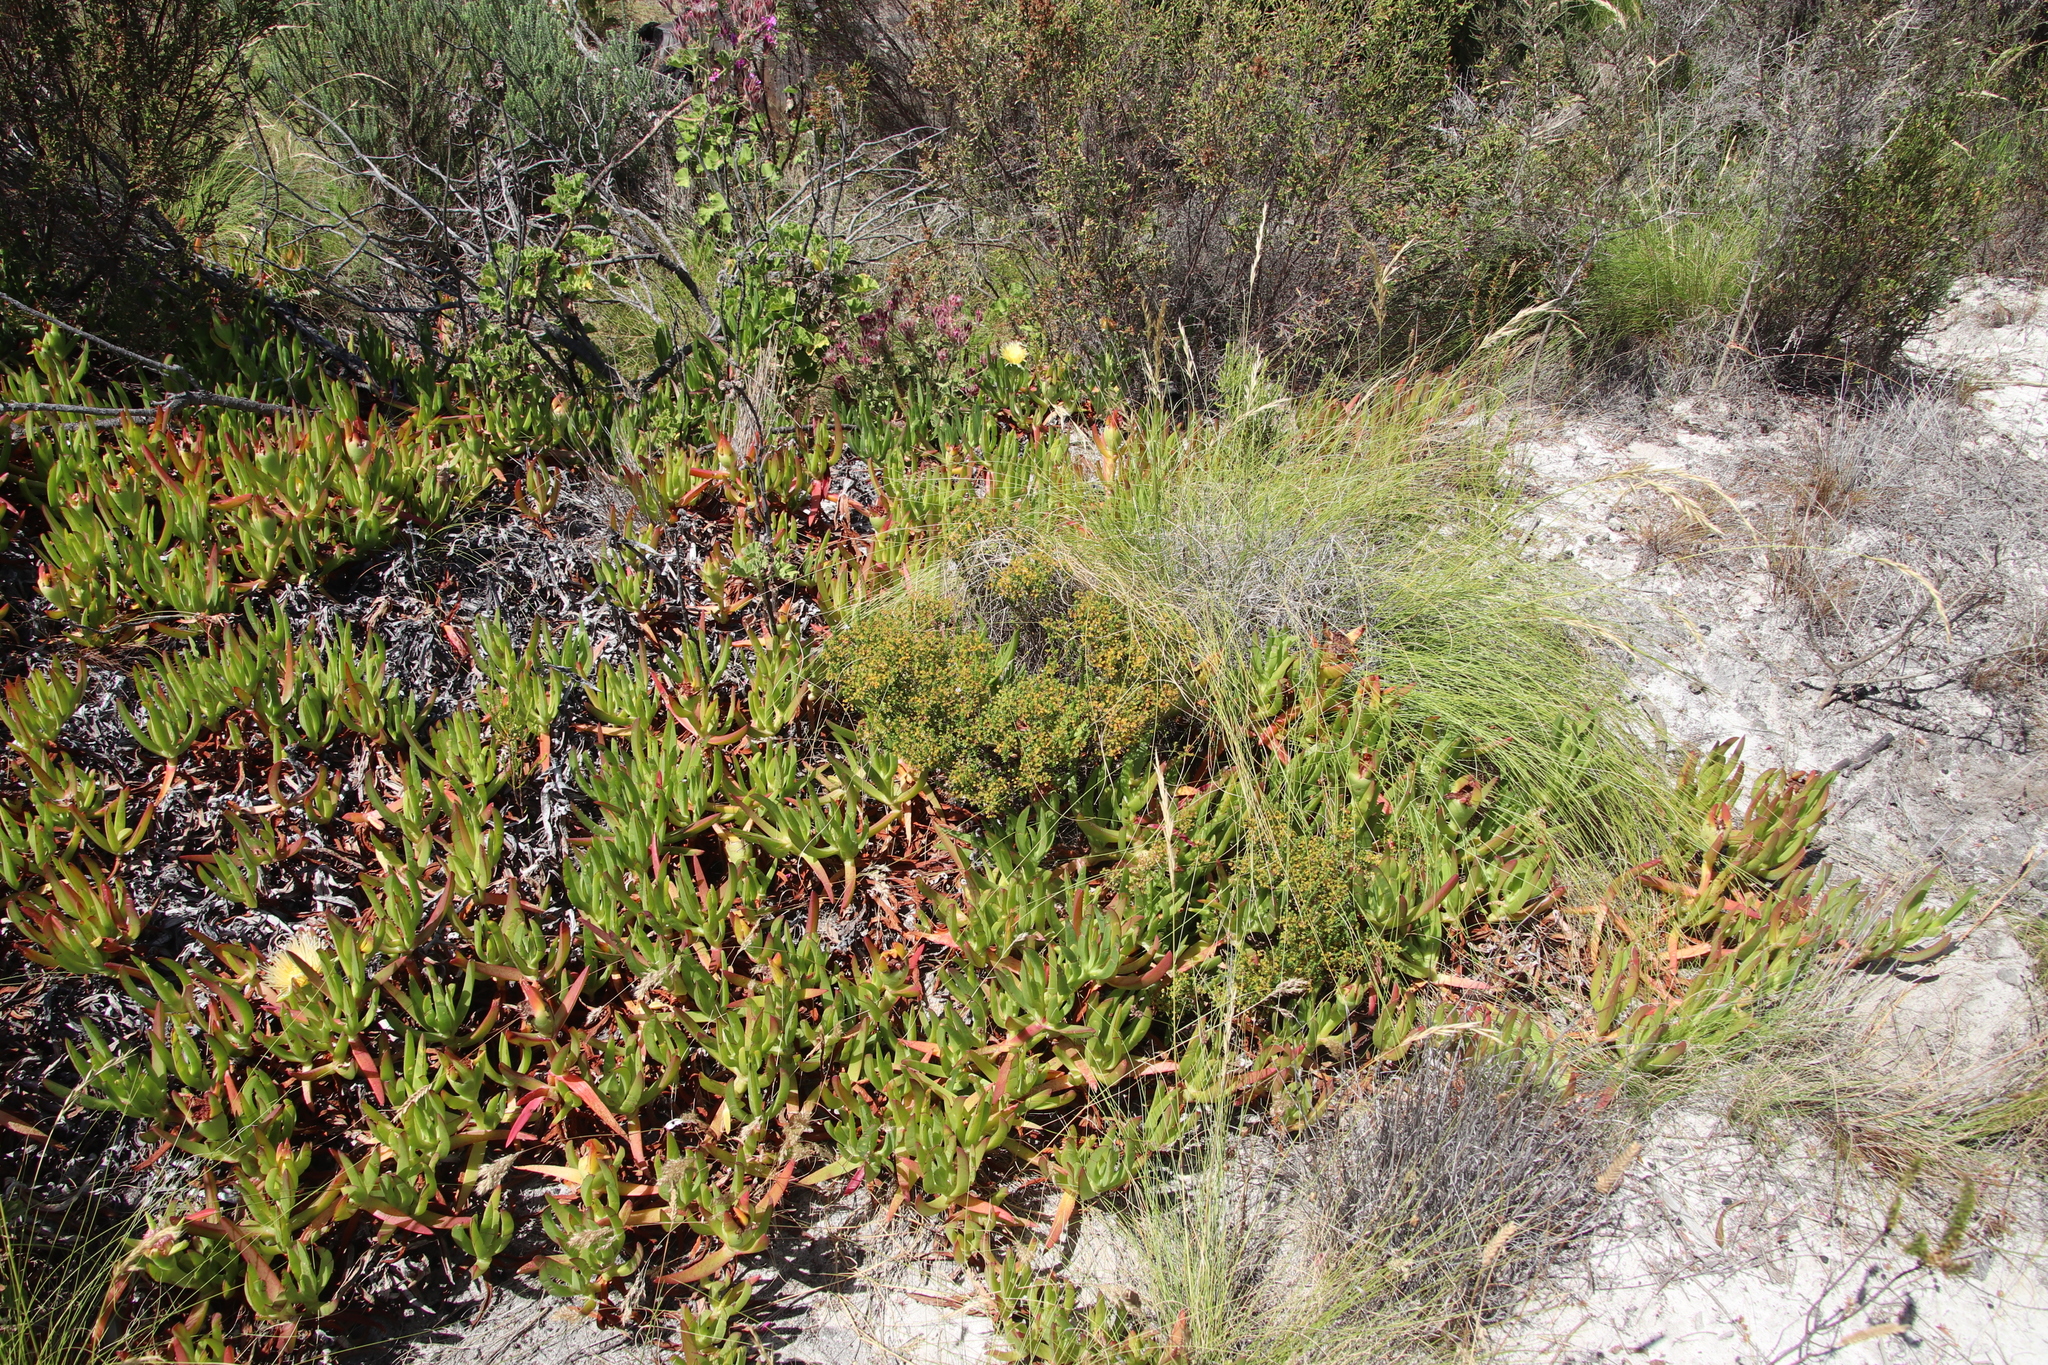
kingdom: Plantae
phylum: Tracheophyta
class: Magnoliopsida
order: Sapindales
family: Rutaceae
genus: Agathosma
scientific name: Agathosma glabrata
